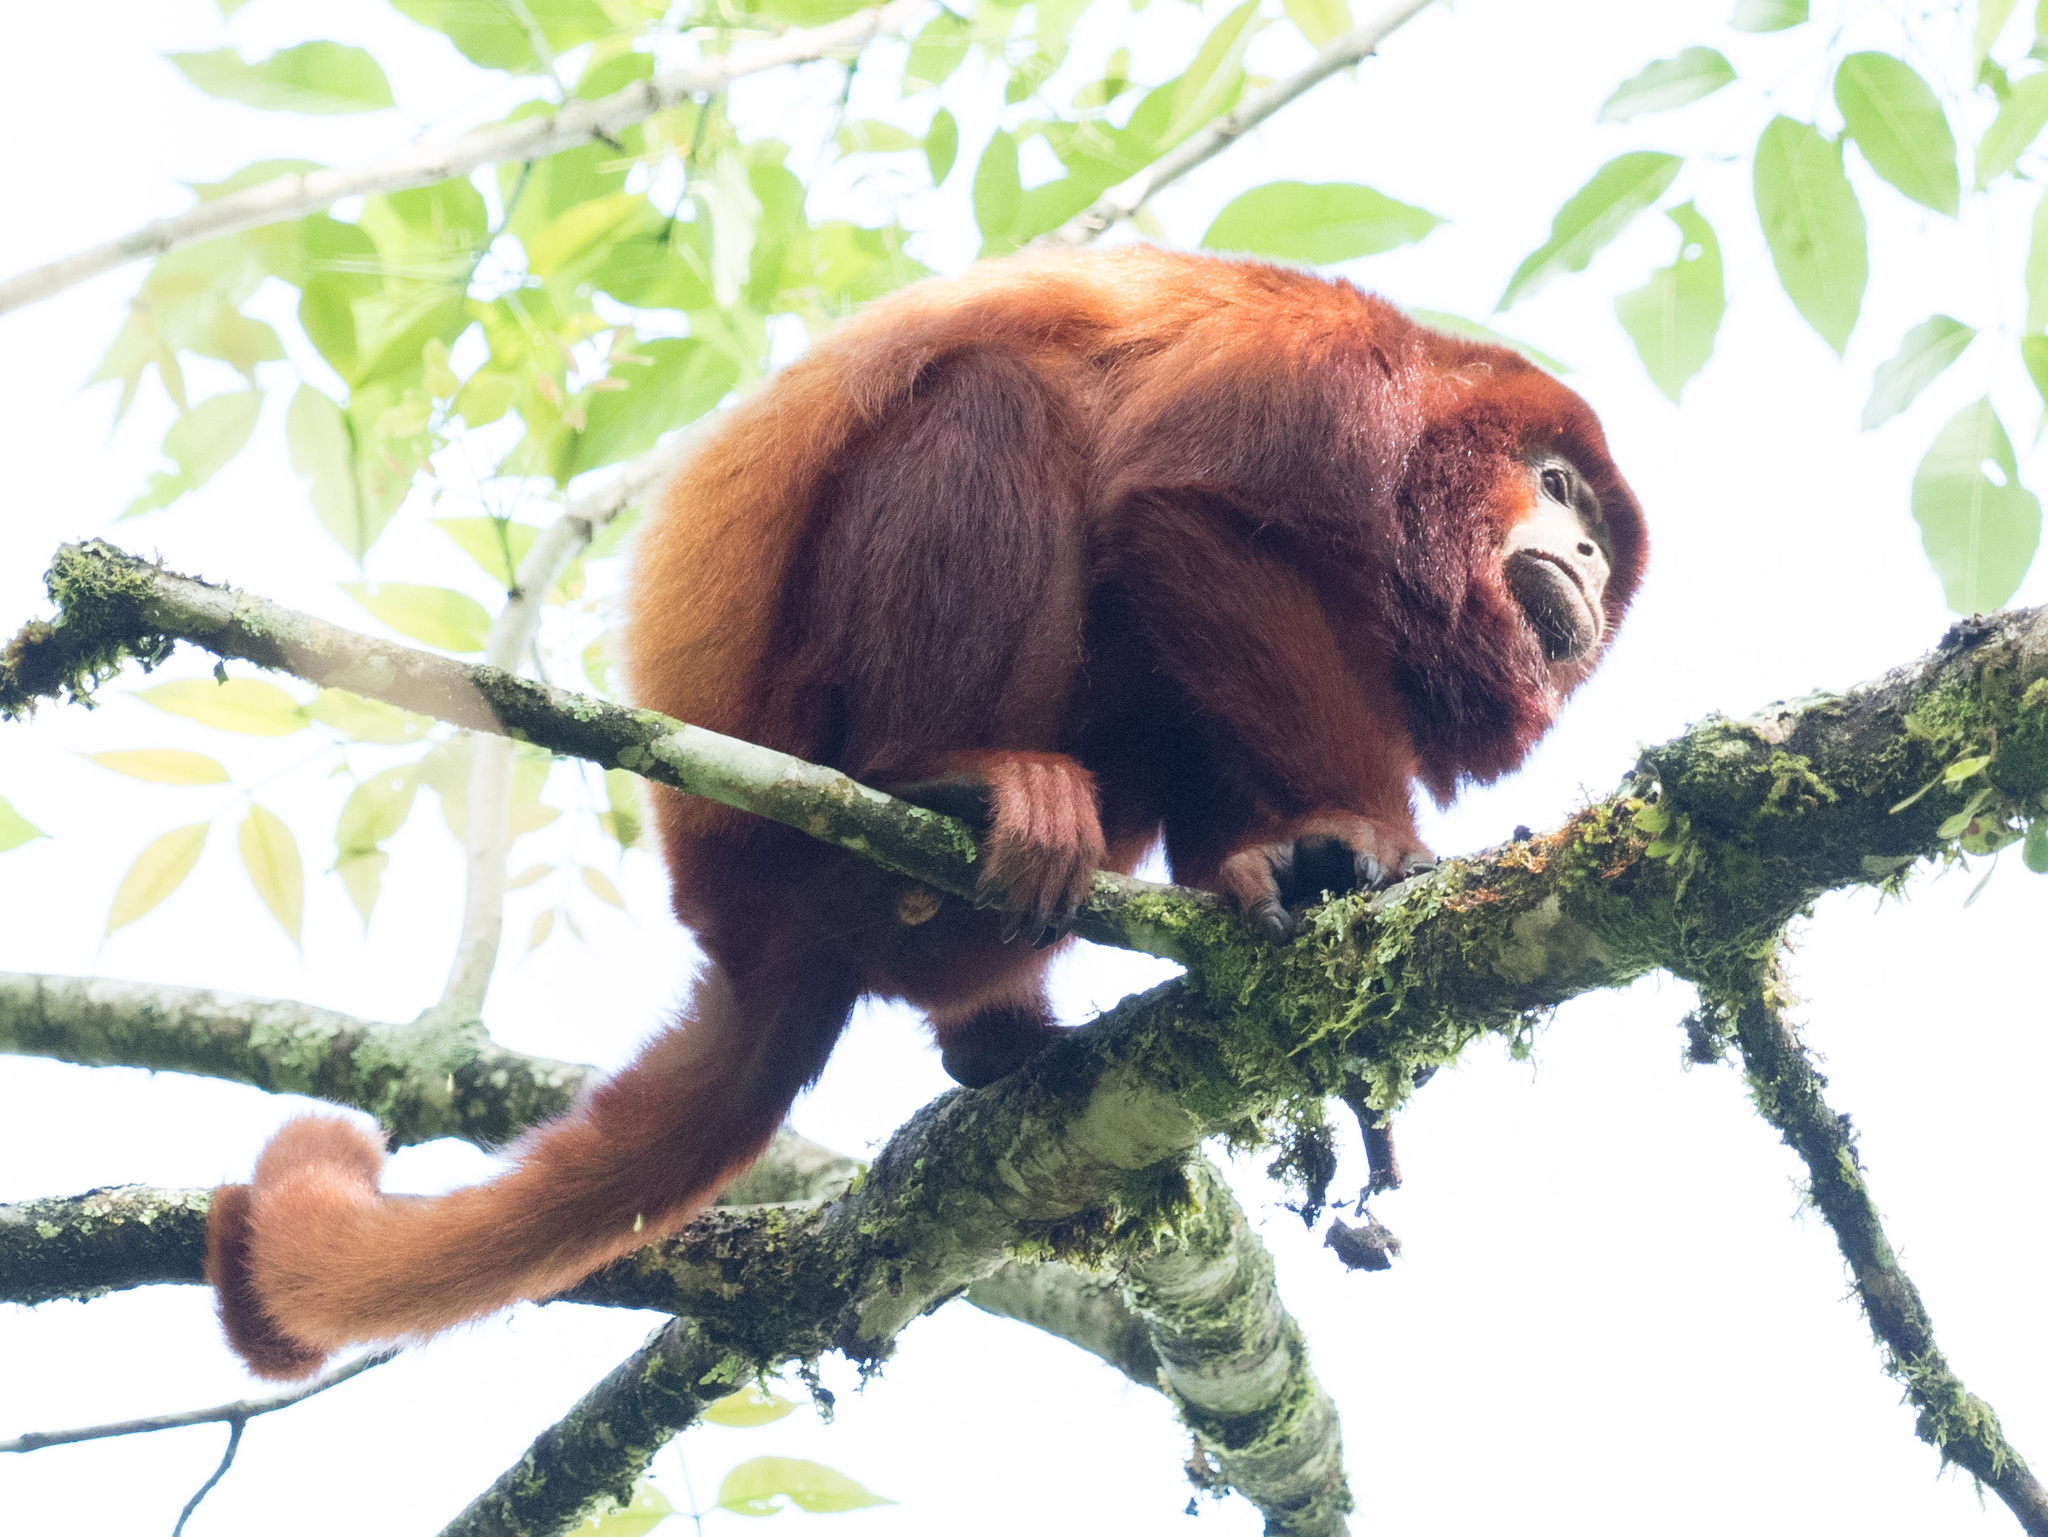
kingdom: Animalia
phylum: Chordata
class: Mammalia
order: Primates
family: Atelidae
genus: Alouatta
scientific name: Alouatta seniculus
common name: Venezuelan red howler
